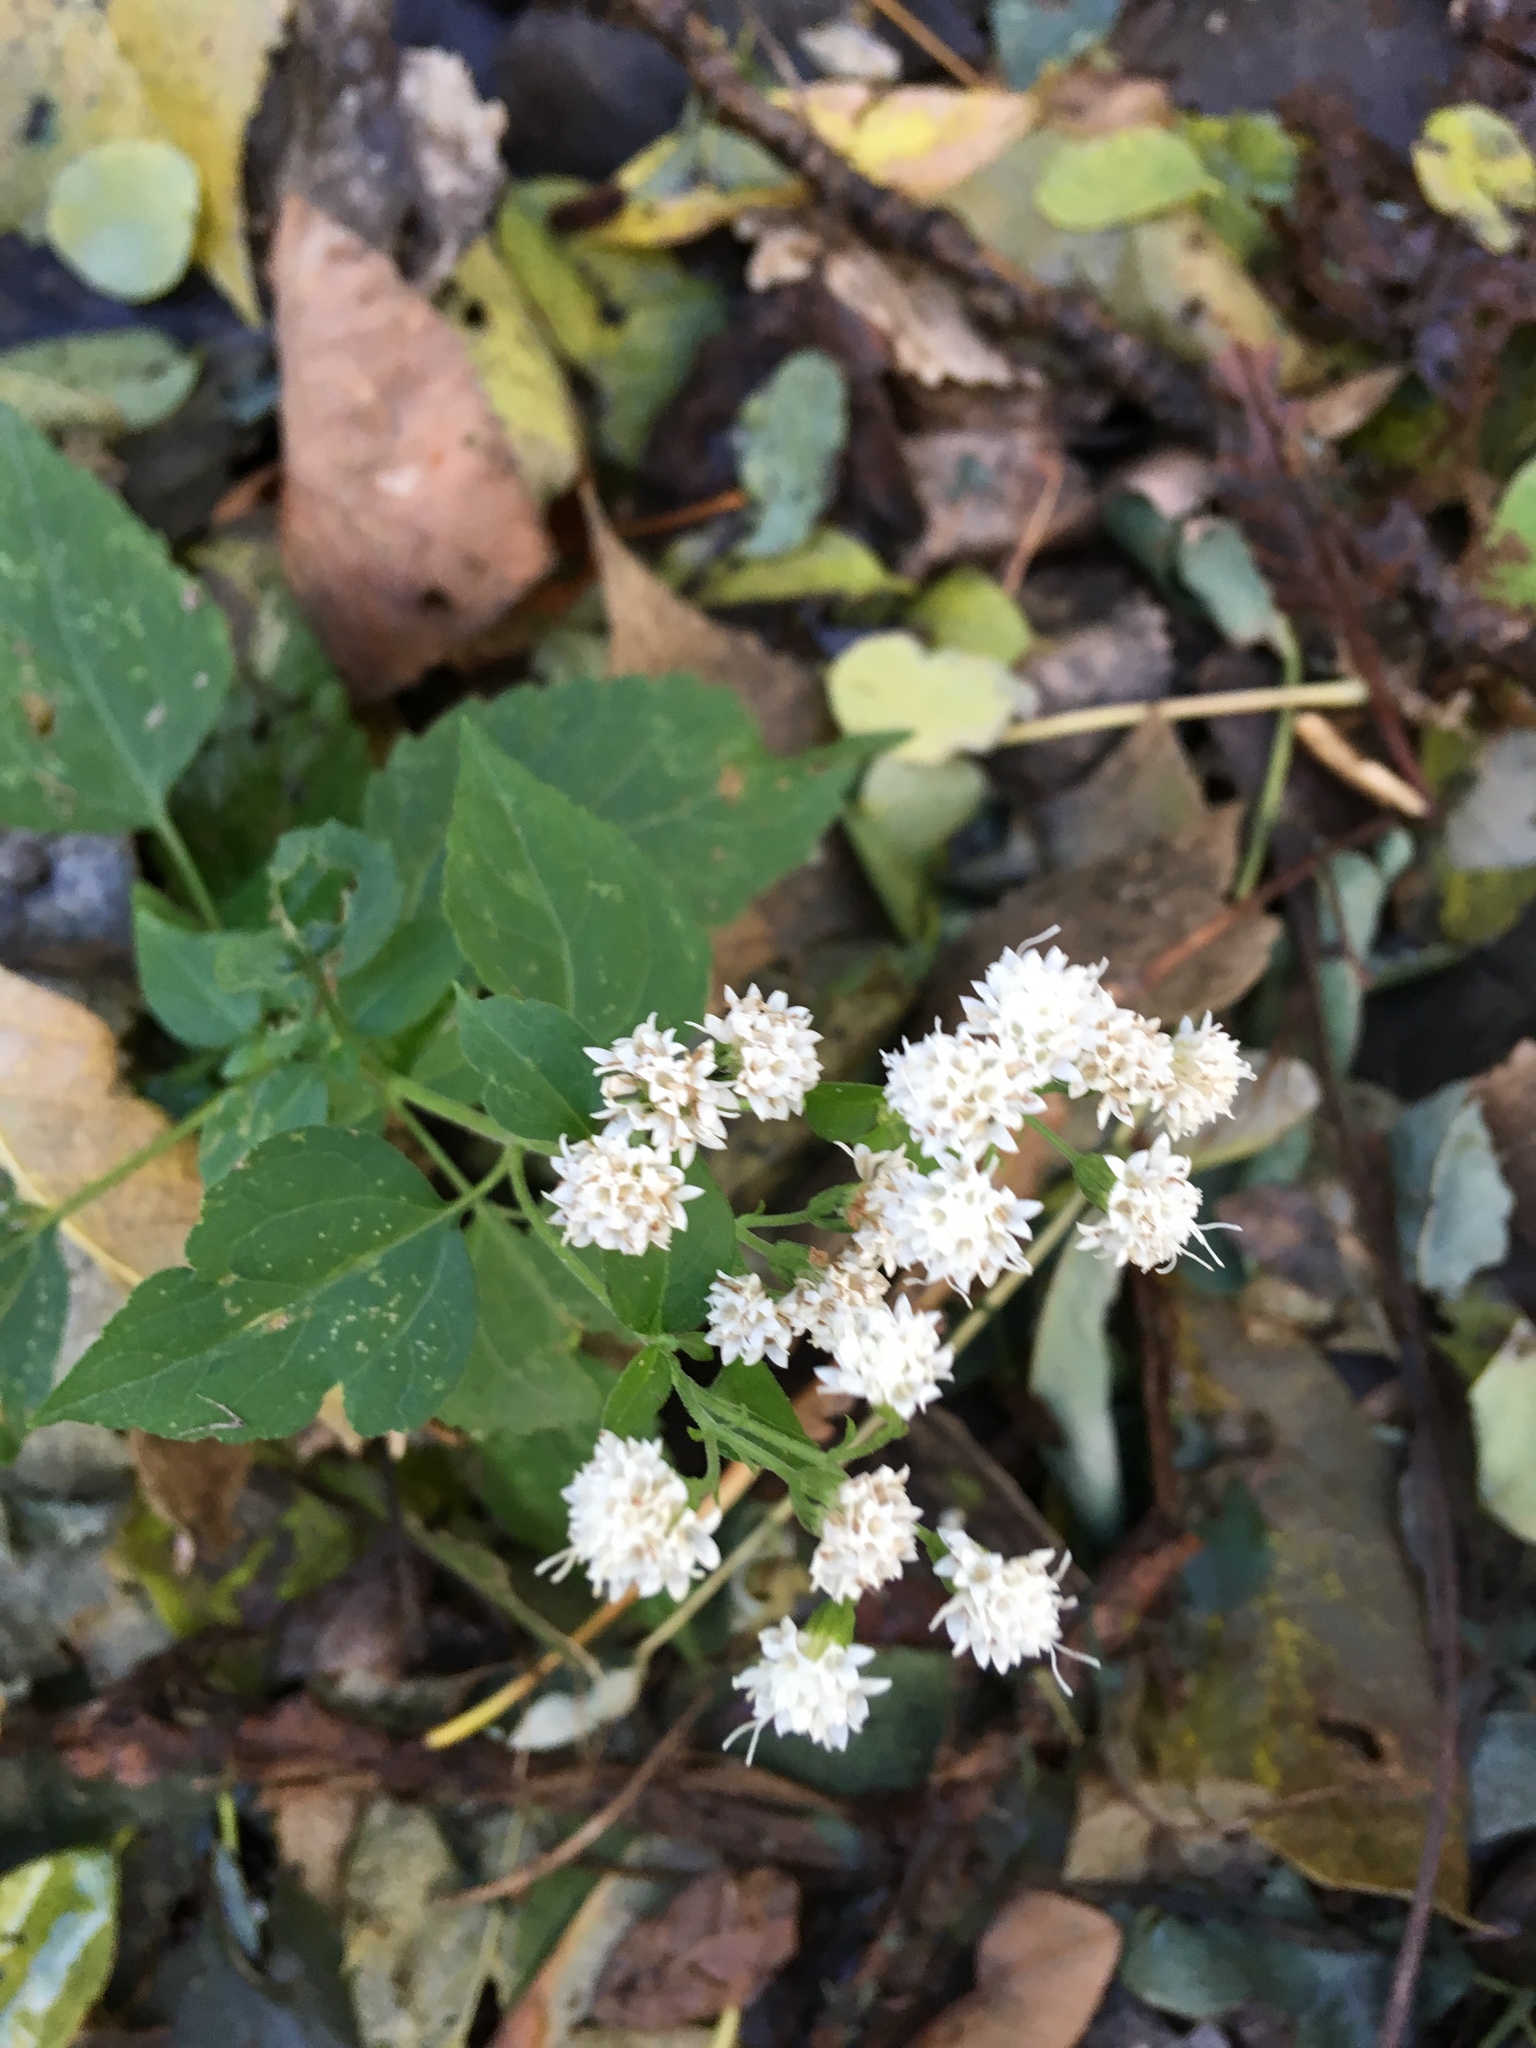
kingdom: Plantae
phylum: Tracheophyta
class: Magnoliopsida
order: Asterales
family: Asteraceae
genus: Ageratina
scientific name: Ageratina altissima
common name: White snakeroot
